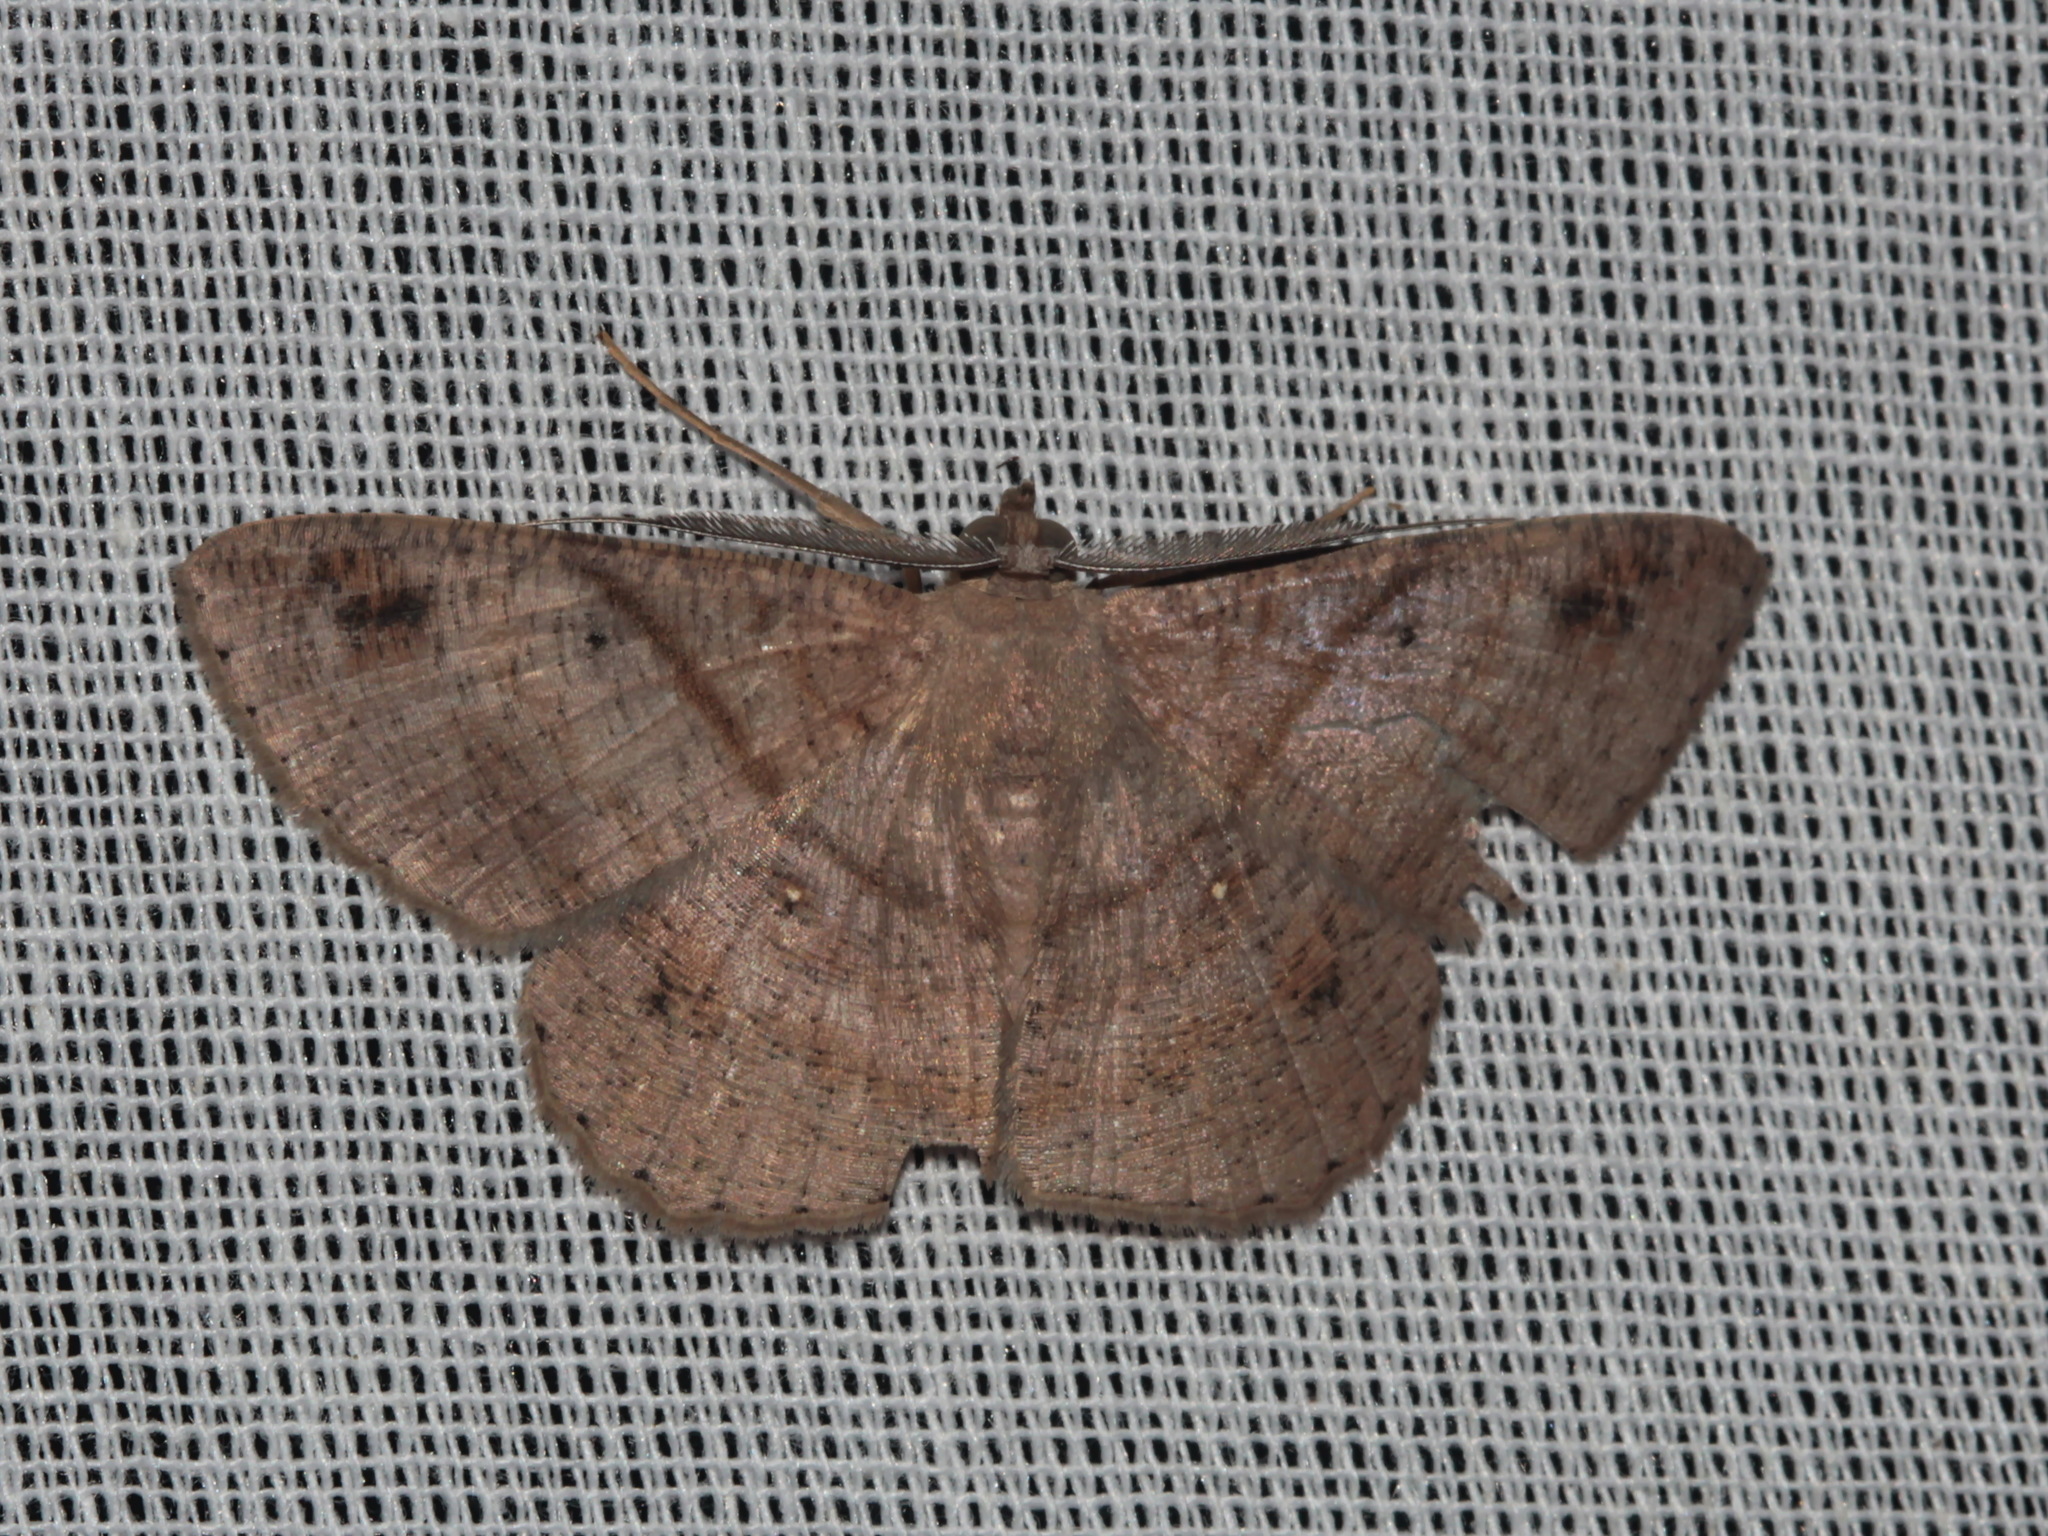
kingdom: Animalia
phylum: Arthropoda
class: Insecta
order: Lepidoptera
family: Geometridae
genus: Petelia
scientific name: Petelia delostigma
